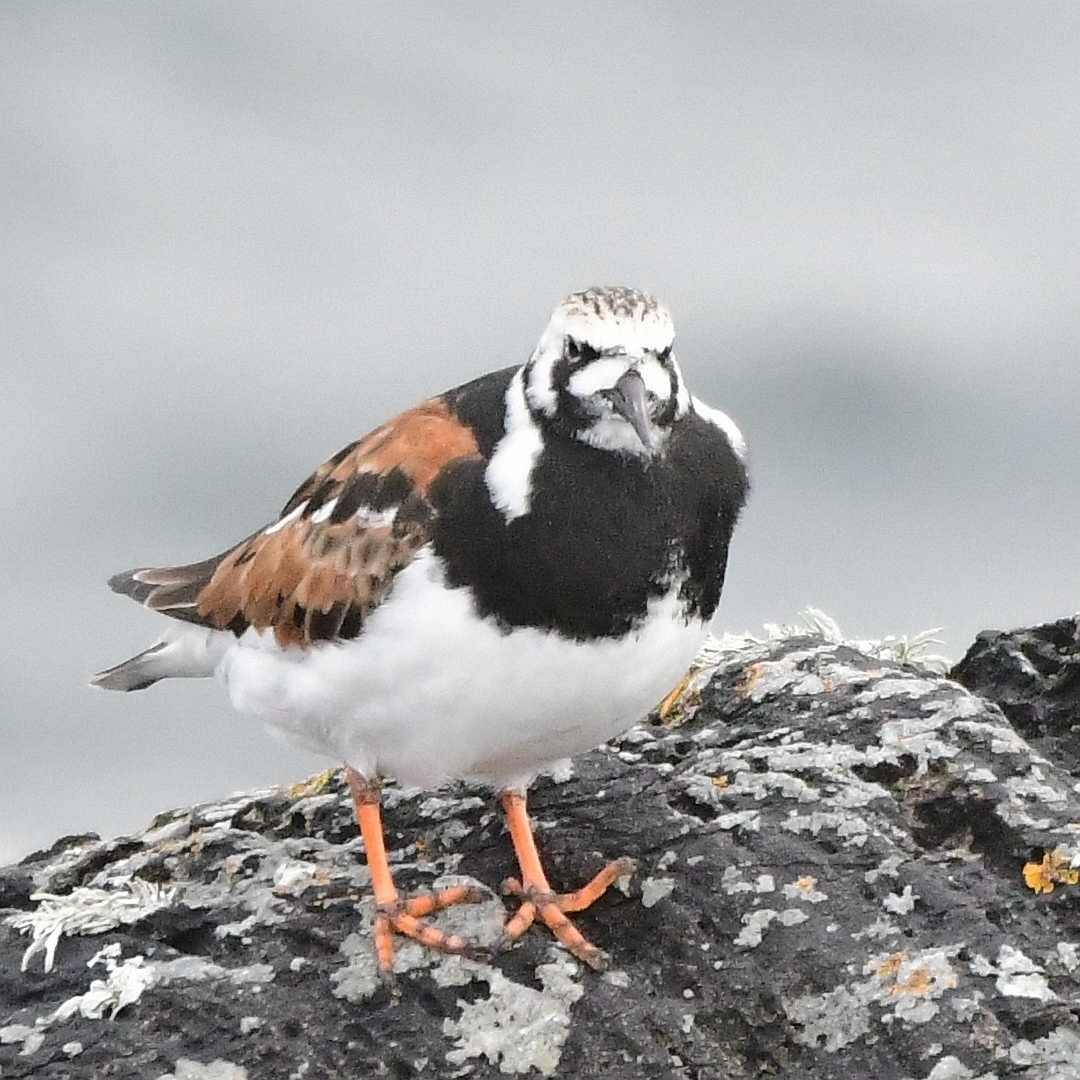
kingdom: Animalia
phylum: Chordata
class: Aves
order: Charadriiformes
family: Scolopacidae
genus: Arenaria
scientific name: Arenaria interpres
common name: Ruddy turnstone
